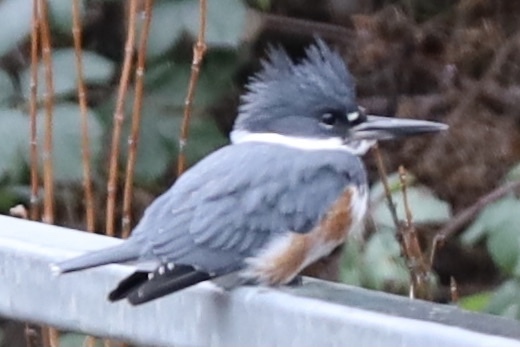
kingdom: Animalia
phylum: Chordata
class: Aves
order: Coraciiformes
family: Alcedinidae
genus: Megaceryle
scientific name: Megaceryle alcyon
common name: Belted kingfisher
